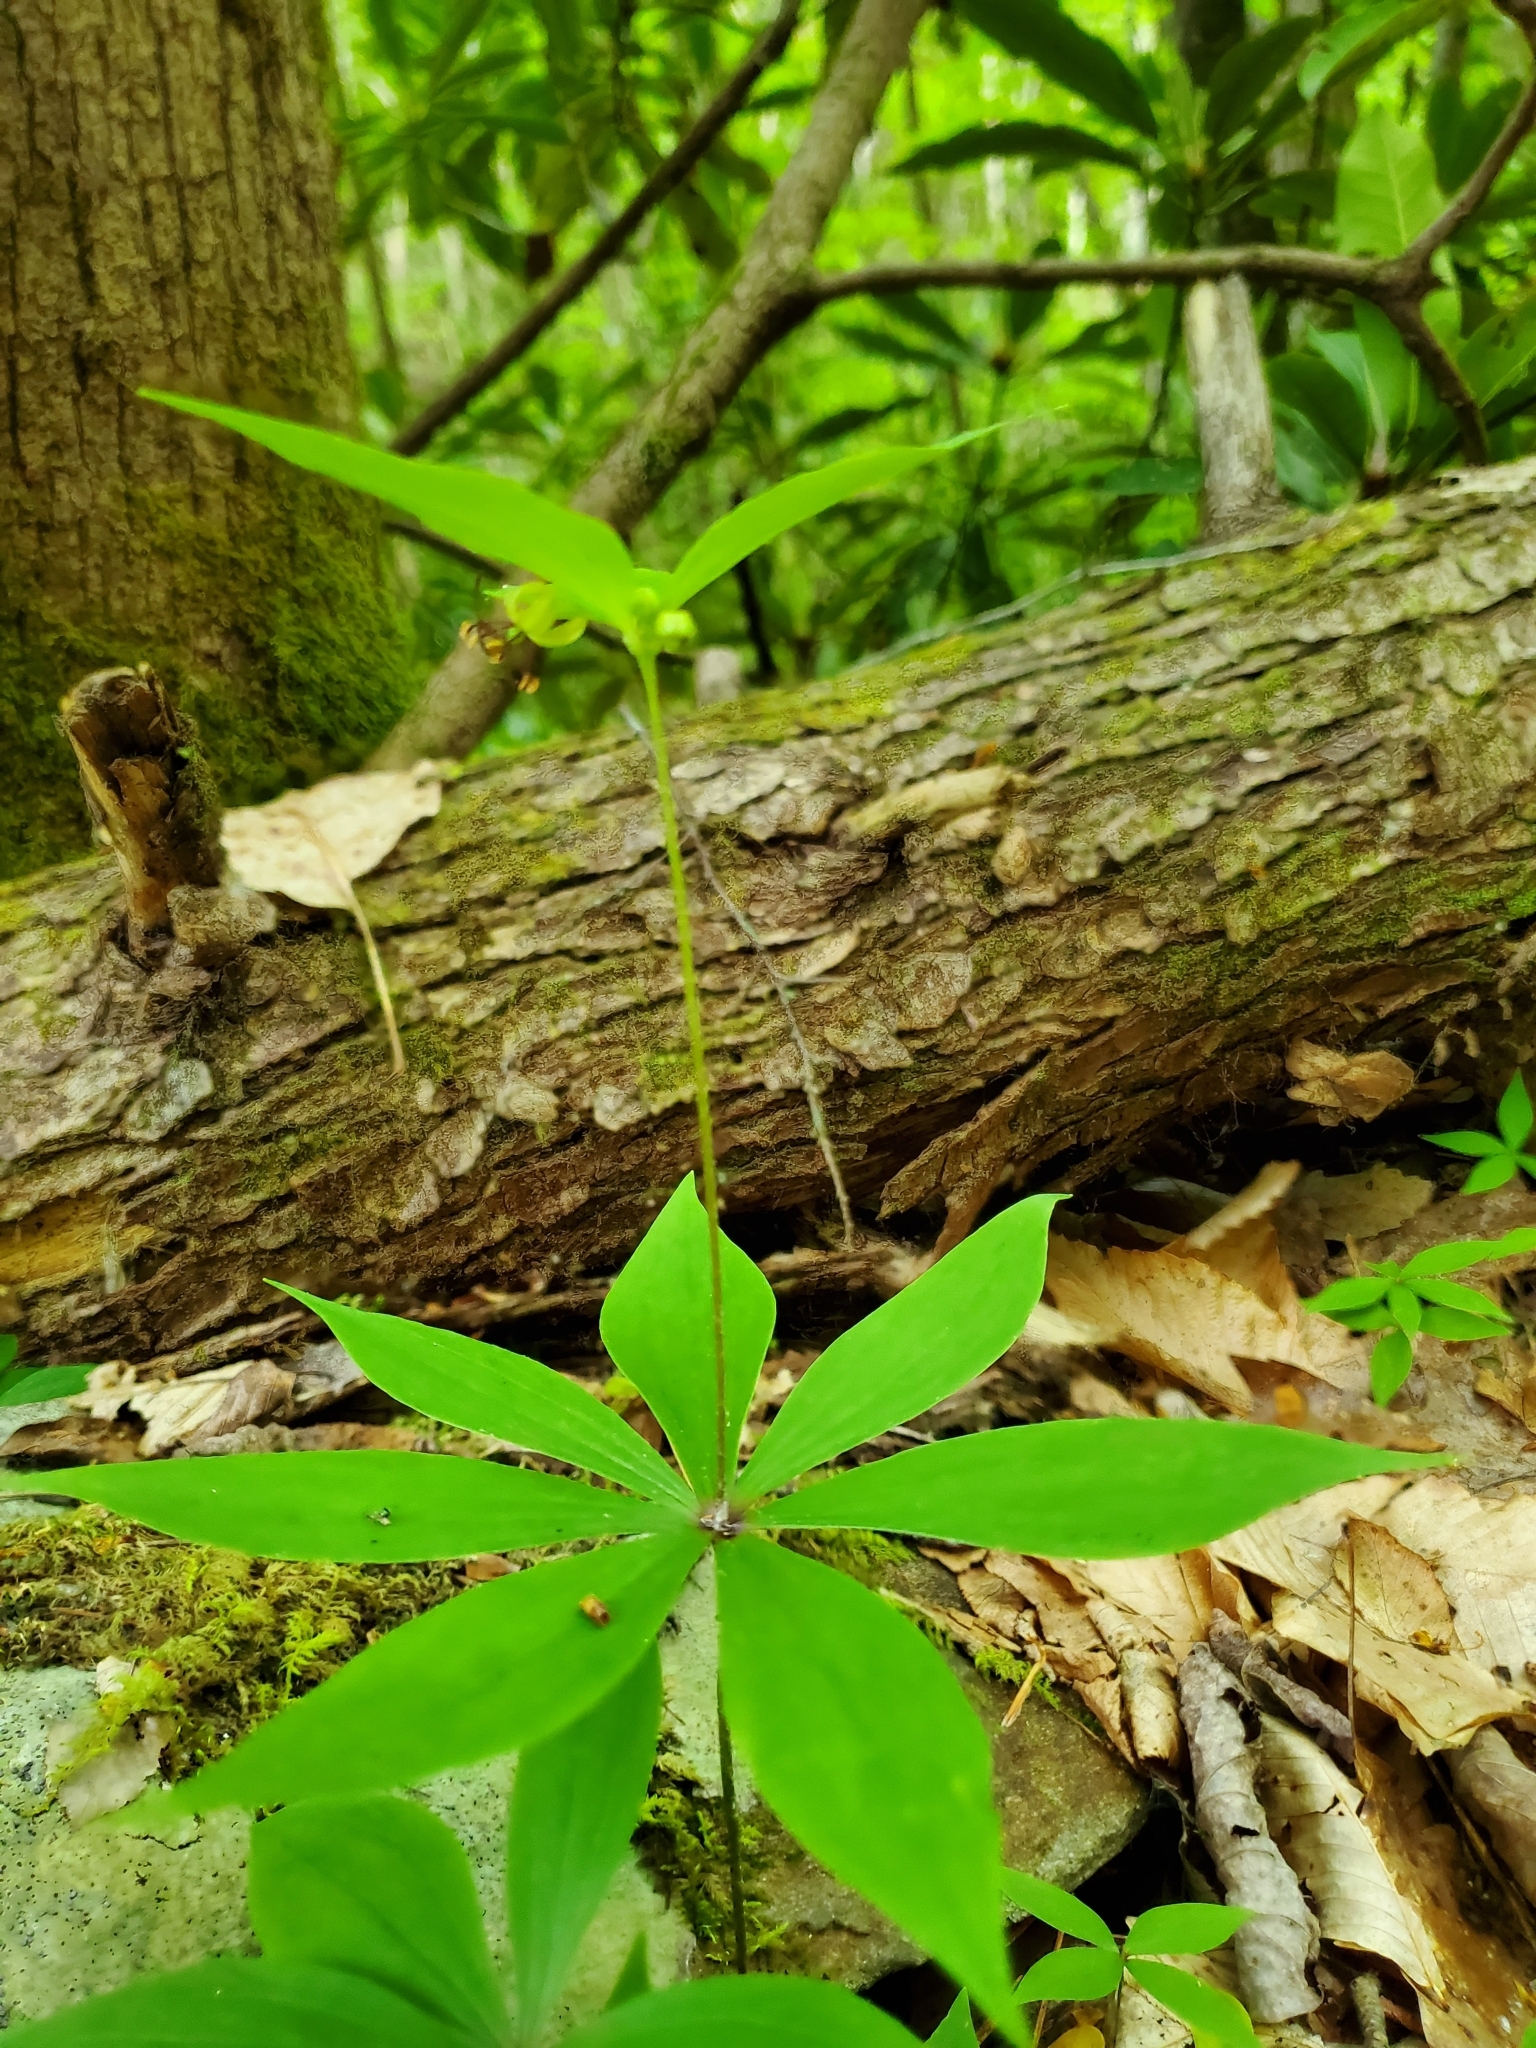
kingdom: Plantae
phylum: Tracheophyta
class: Liliopsida
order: Liliales
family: Liliaceae
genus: Medeola
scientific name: Medeola virginiana
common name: Indian cucumber-root
